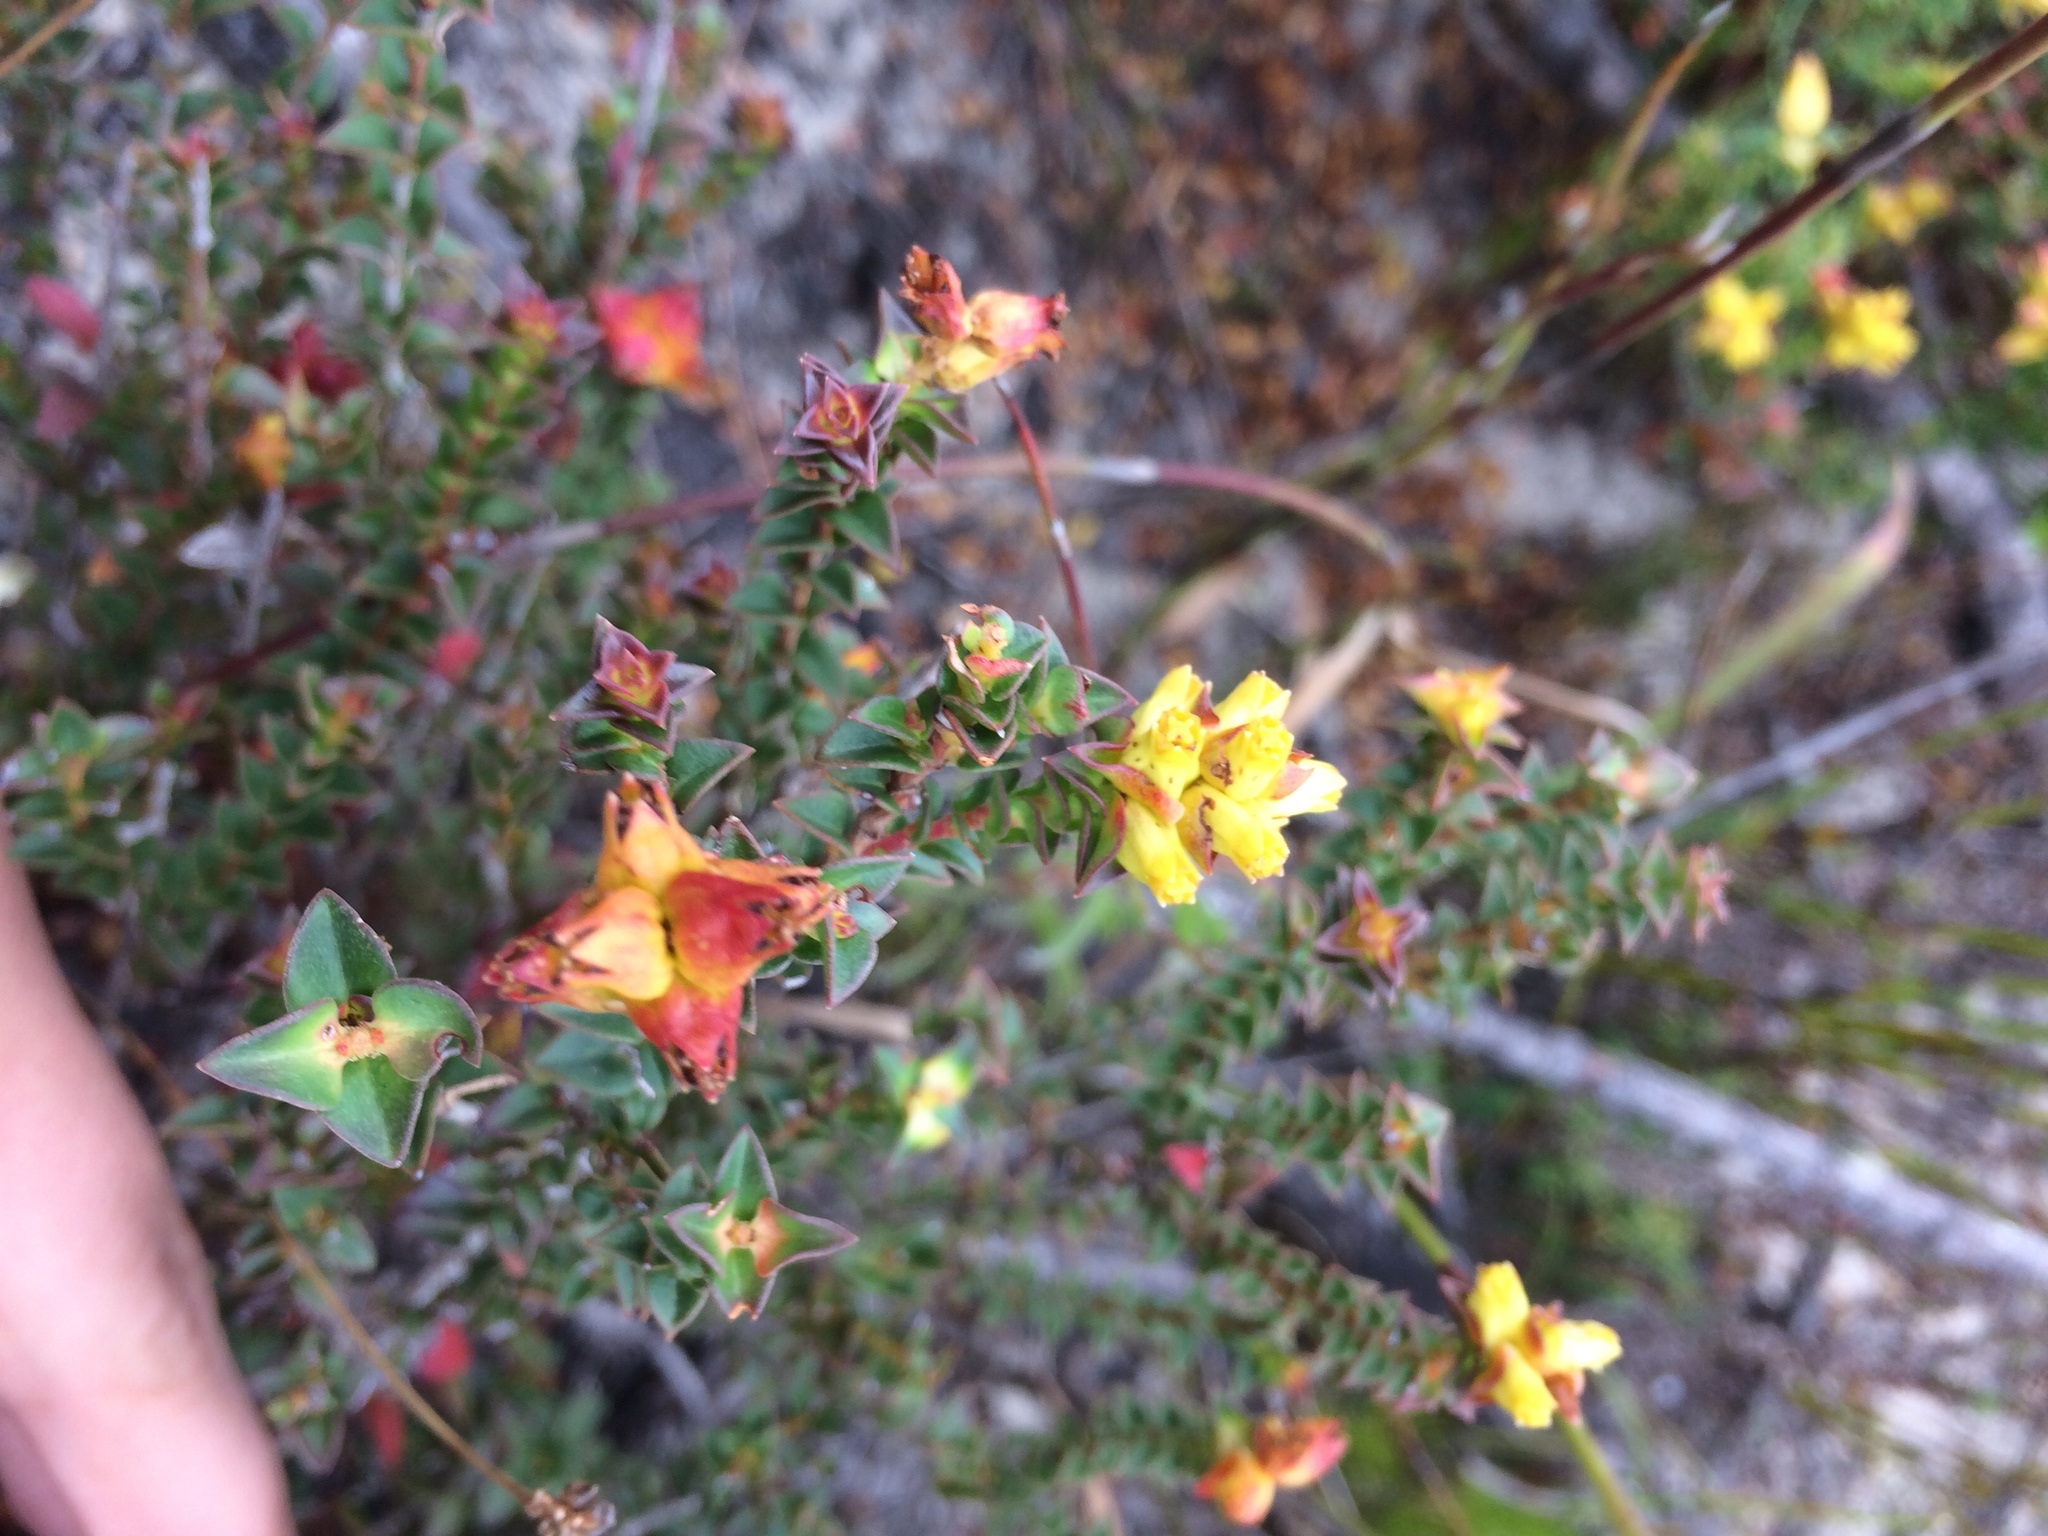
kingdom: Plantae
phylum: Tracheophyta
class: Magnoliopsida
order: Myrtales
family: Penaeaceae
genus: Penaea
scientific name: Penaea mucronata
